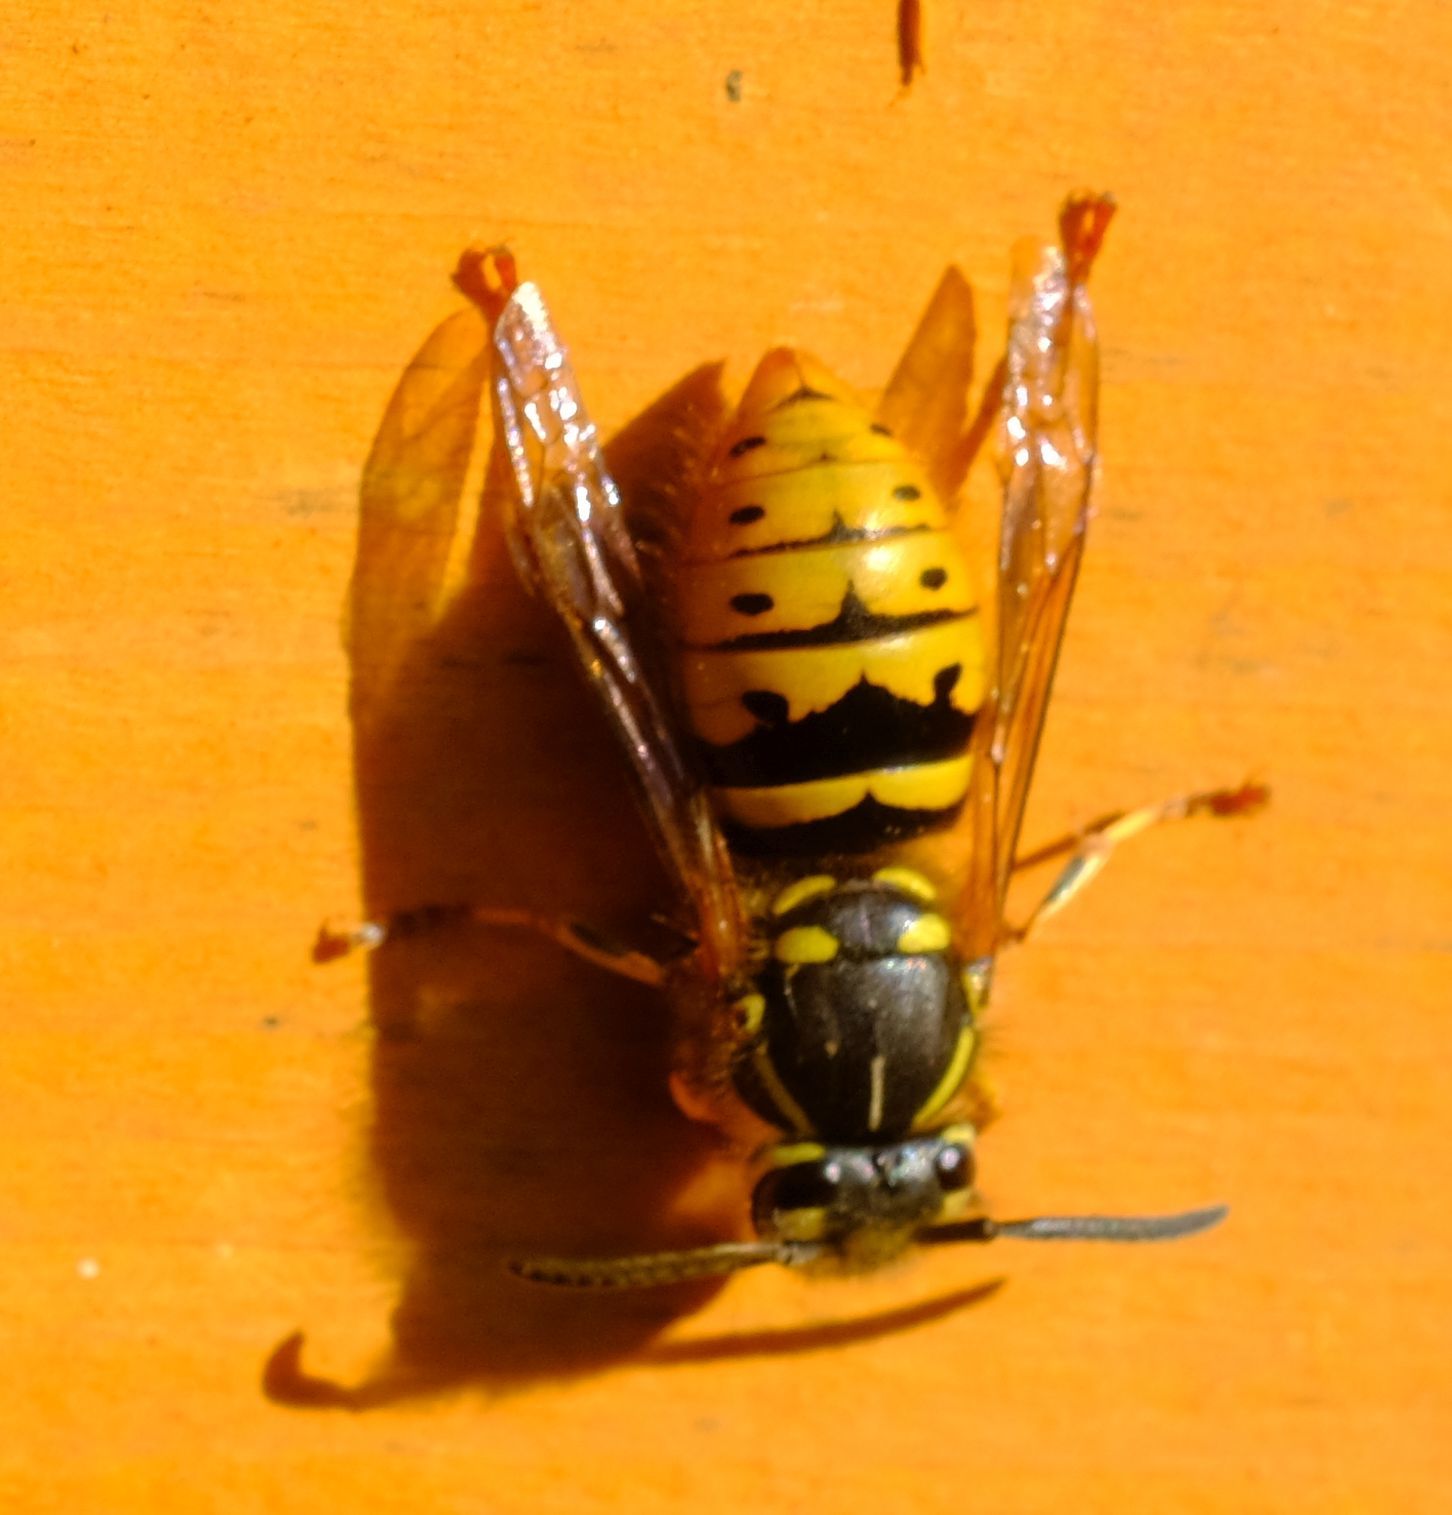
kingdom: Animalia
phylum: Arthropoda
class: Insecta
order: Hymenoptera
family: Vespidae
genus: Vespula
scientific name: Vespula vulgaris
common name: Common wasp
